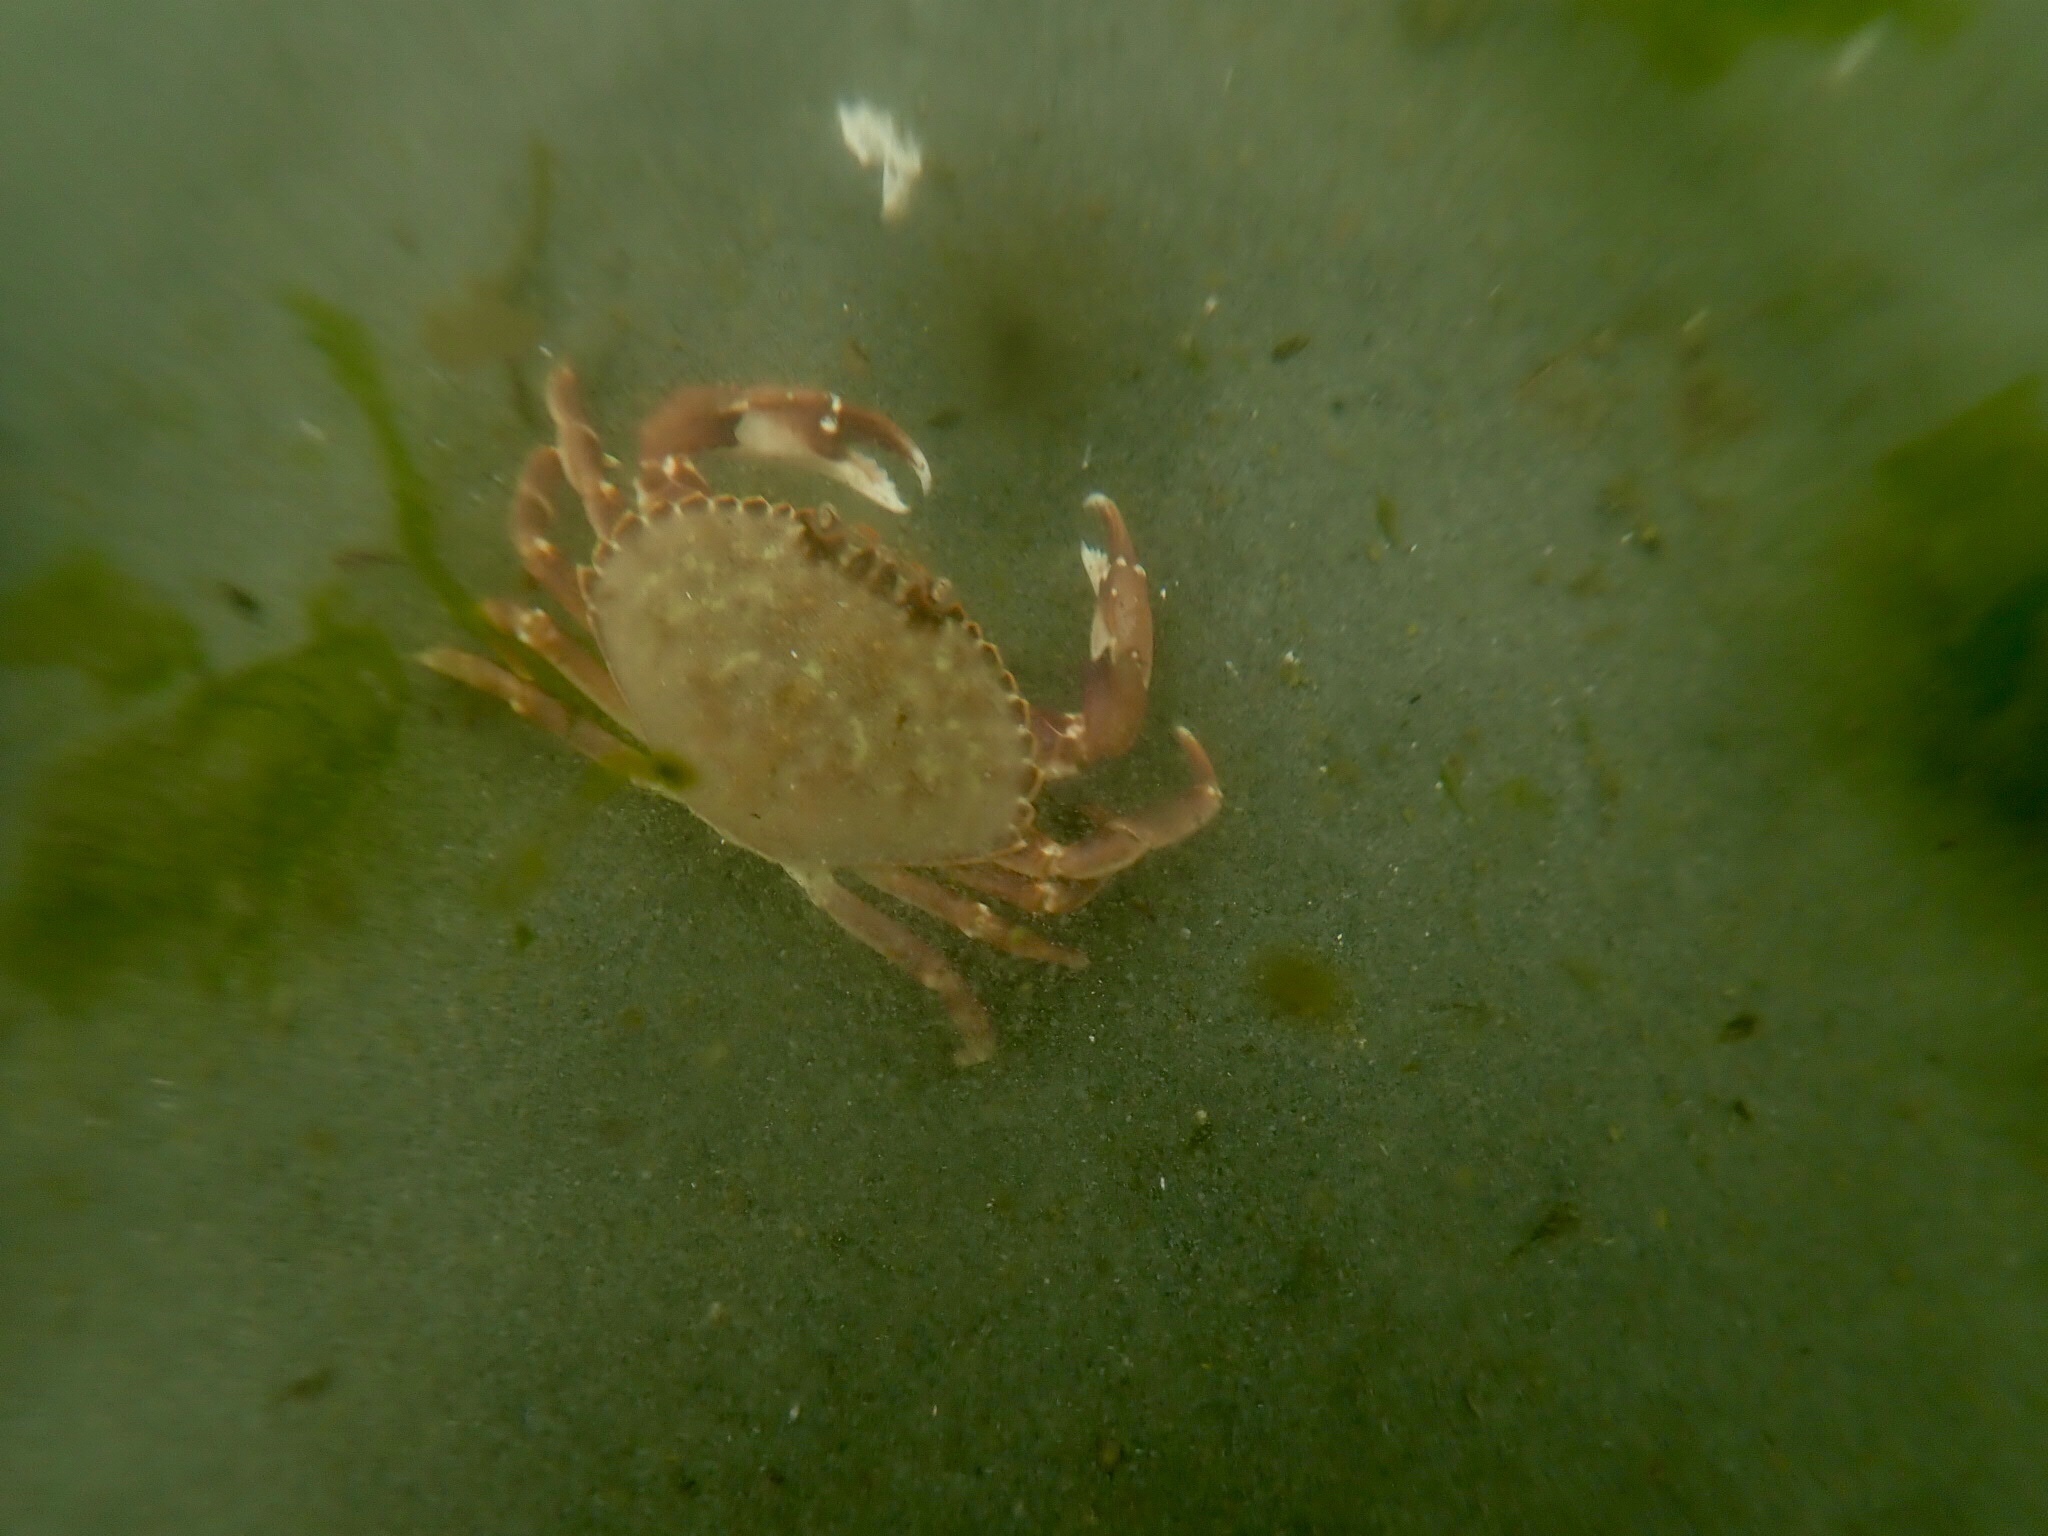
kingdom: Animalia
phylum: Arthropoda
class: Malacostraca
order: Decapoda
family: Cancridae
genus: Metacarcinus
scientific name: Metacarcinus gracilis
